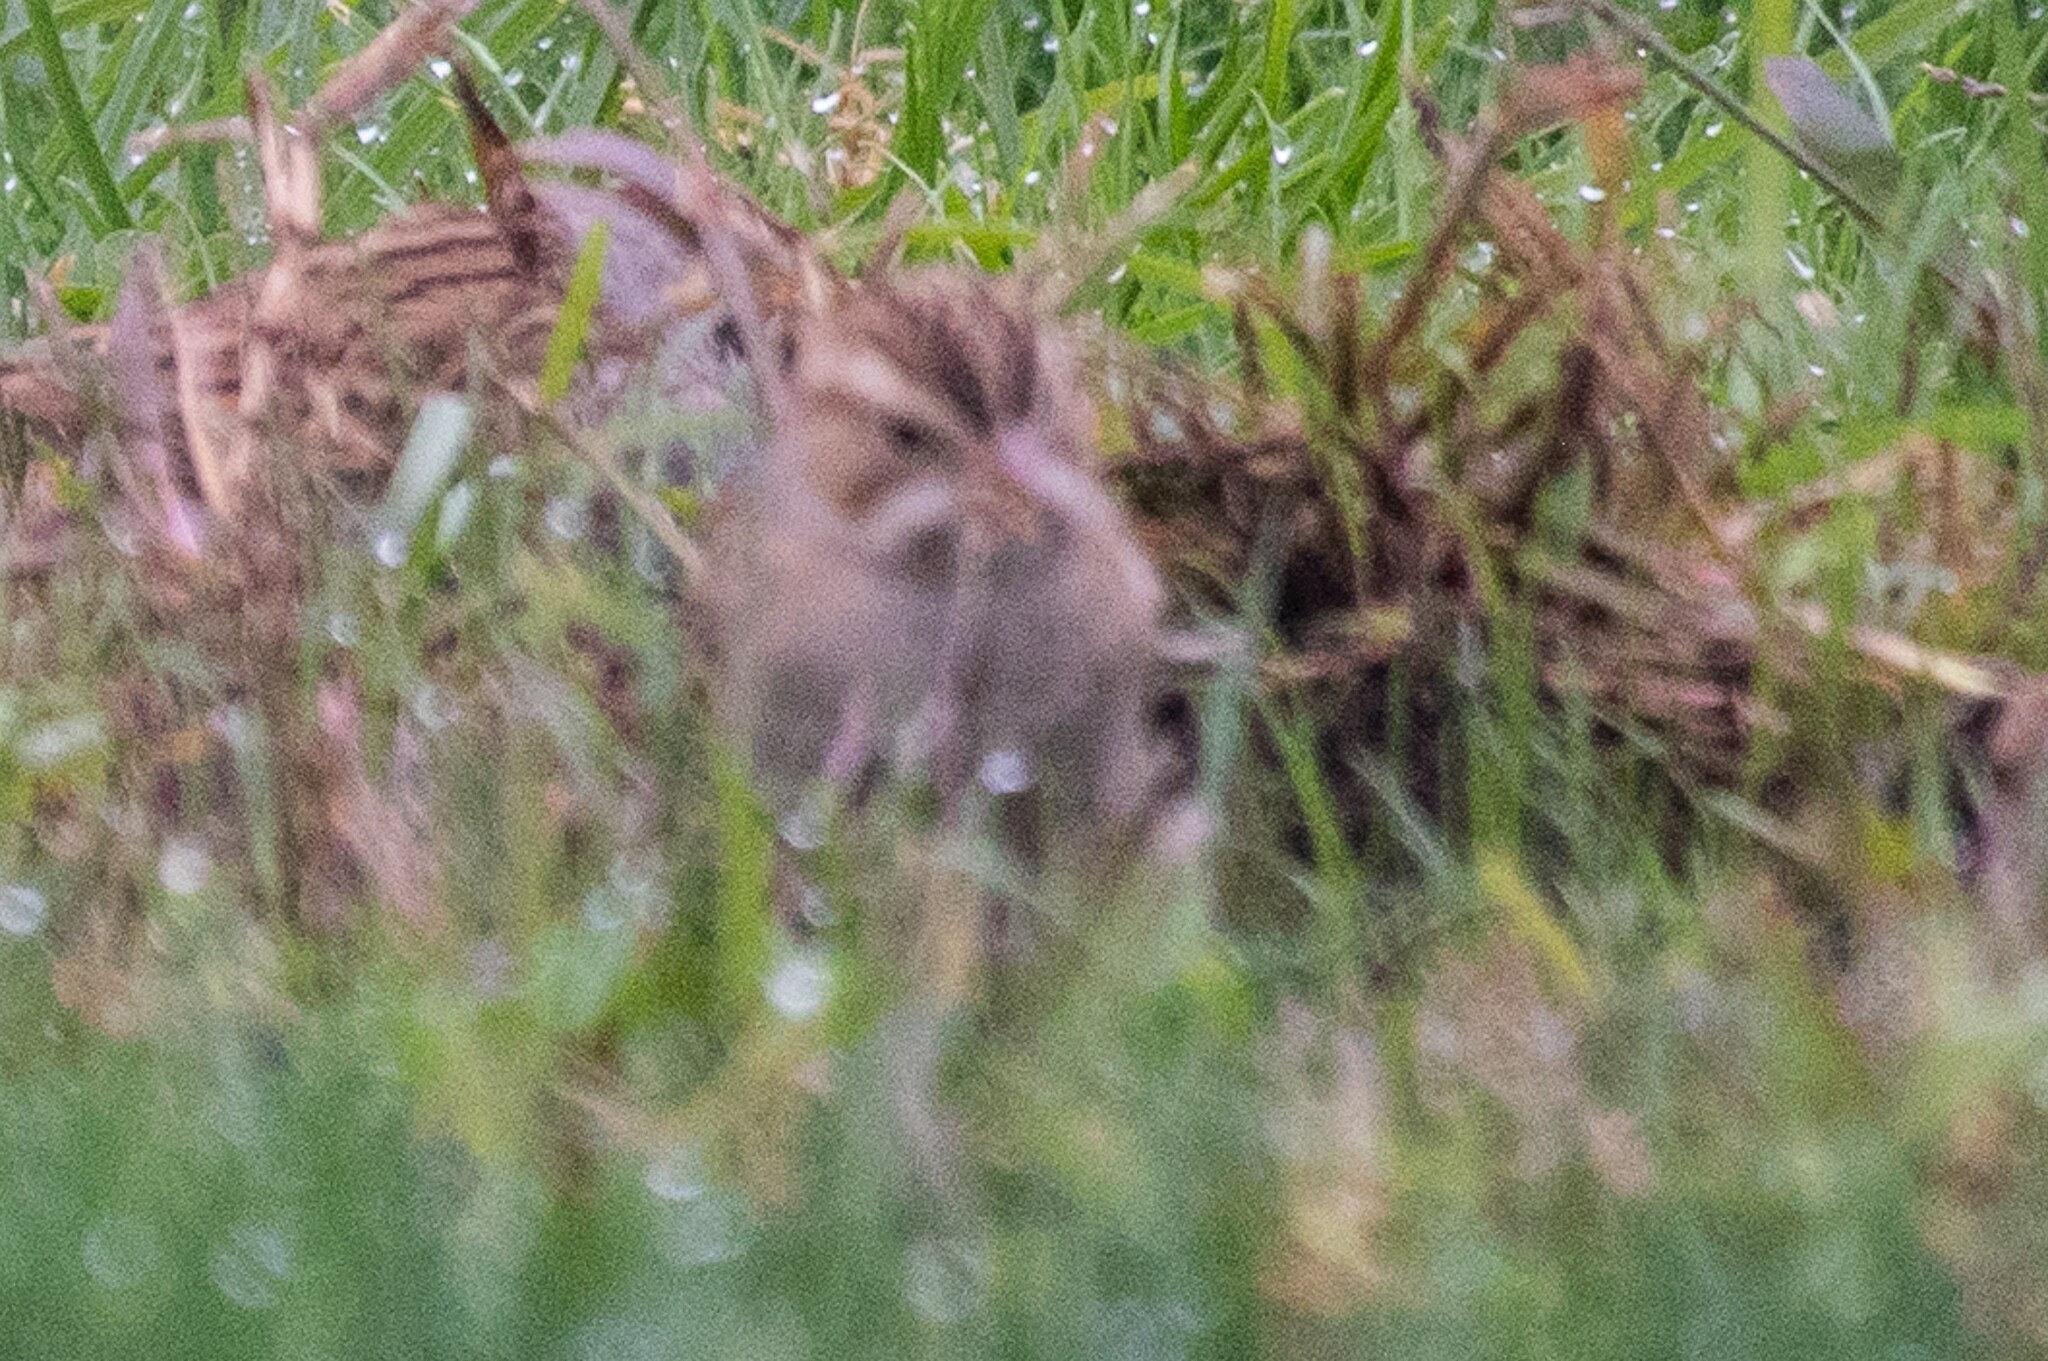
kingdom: Animalia
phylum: Chordata
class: Aves
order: Passeriformes
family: Passerellidae
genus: Spizella
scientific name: Spizella pallida
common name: Clay-colored sparrow
